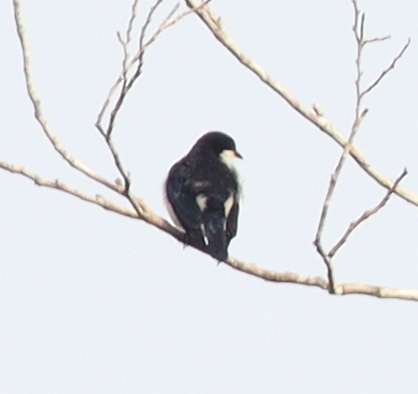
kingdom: Animalia
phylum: Chordata
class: Aves
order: Passeriformes
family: Hyliotidae
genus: Hyliota
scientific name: Hyliota violacea
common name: Violet-backed hyliota
